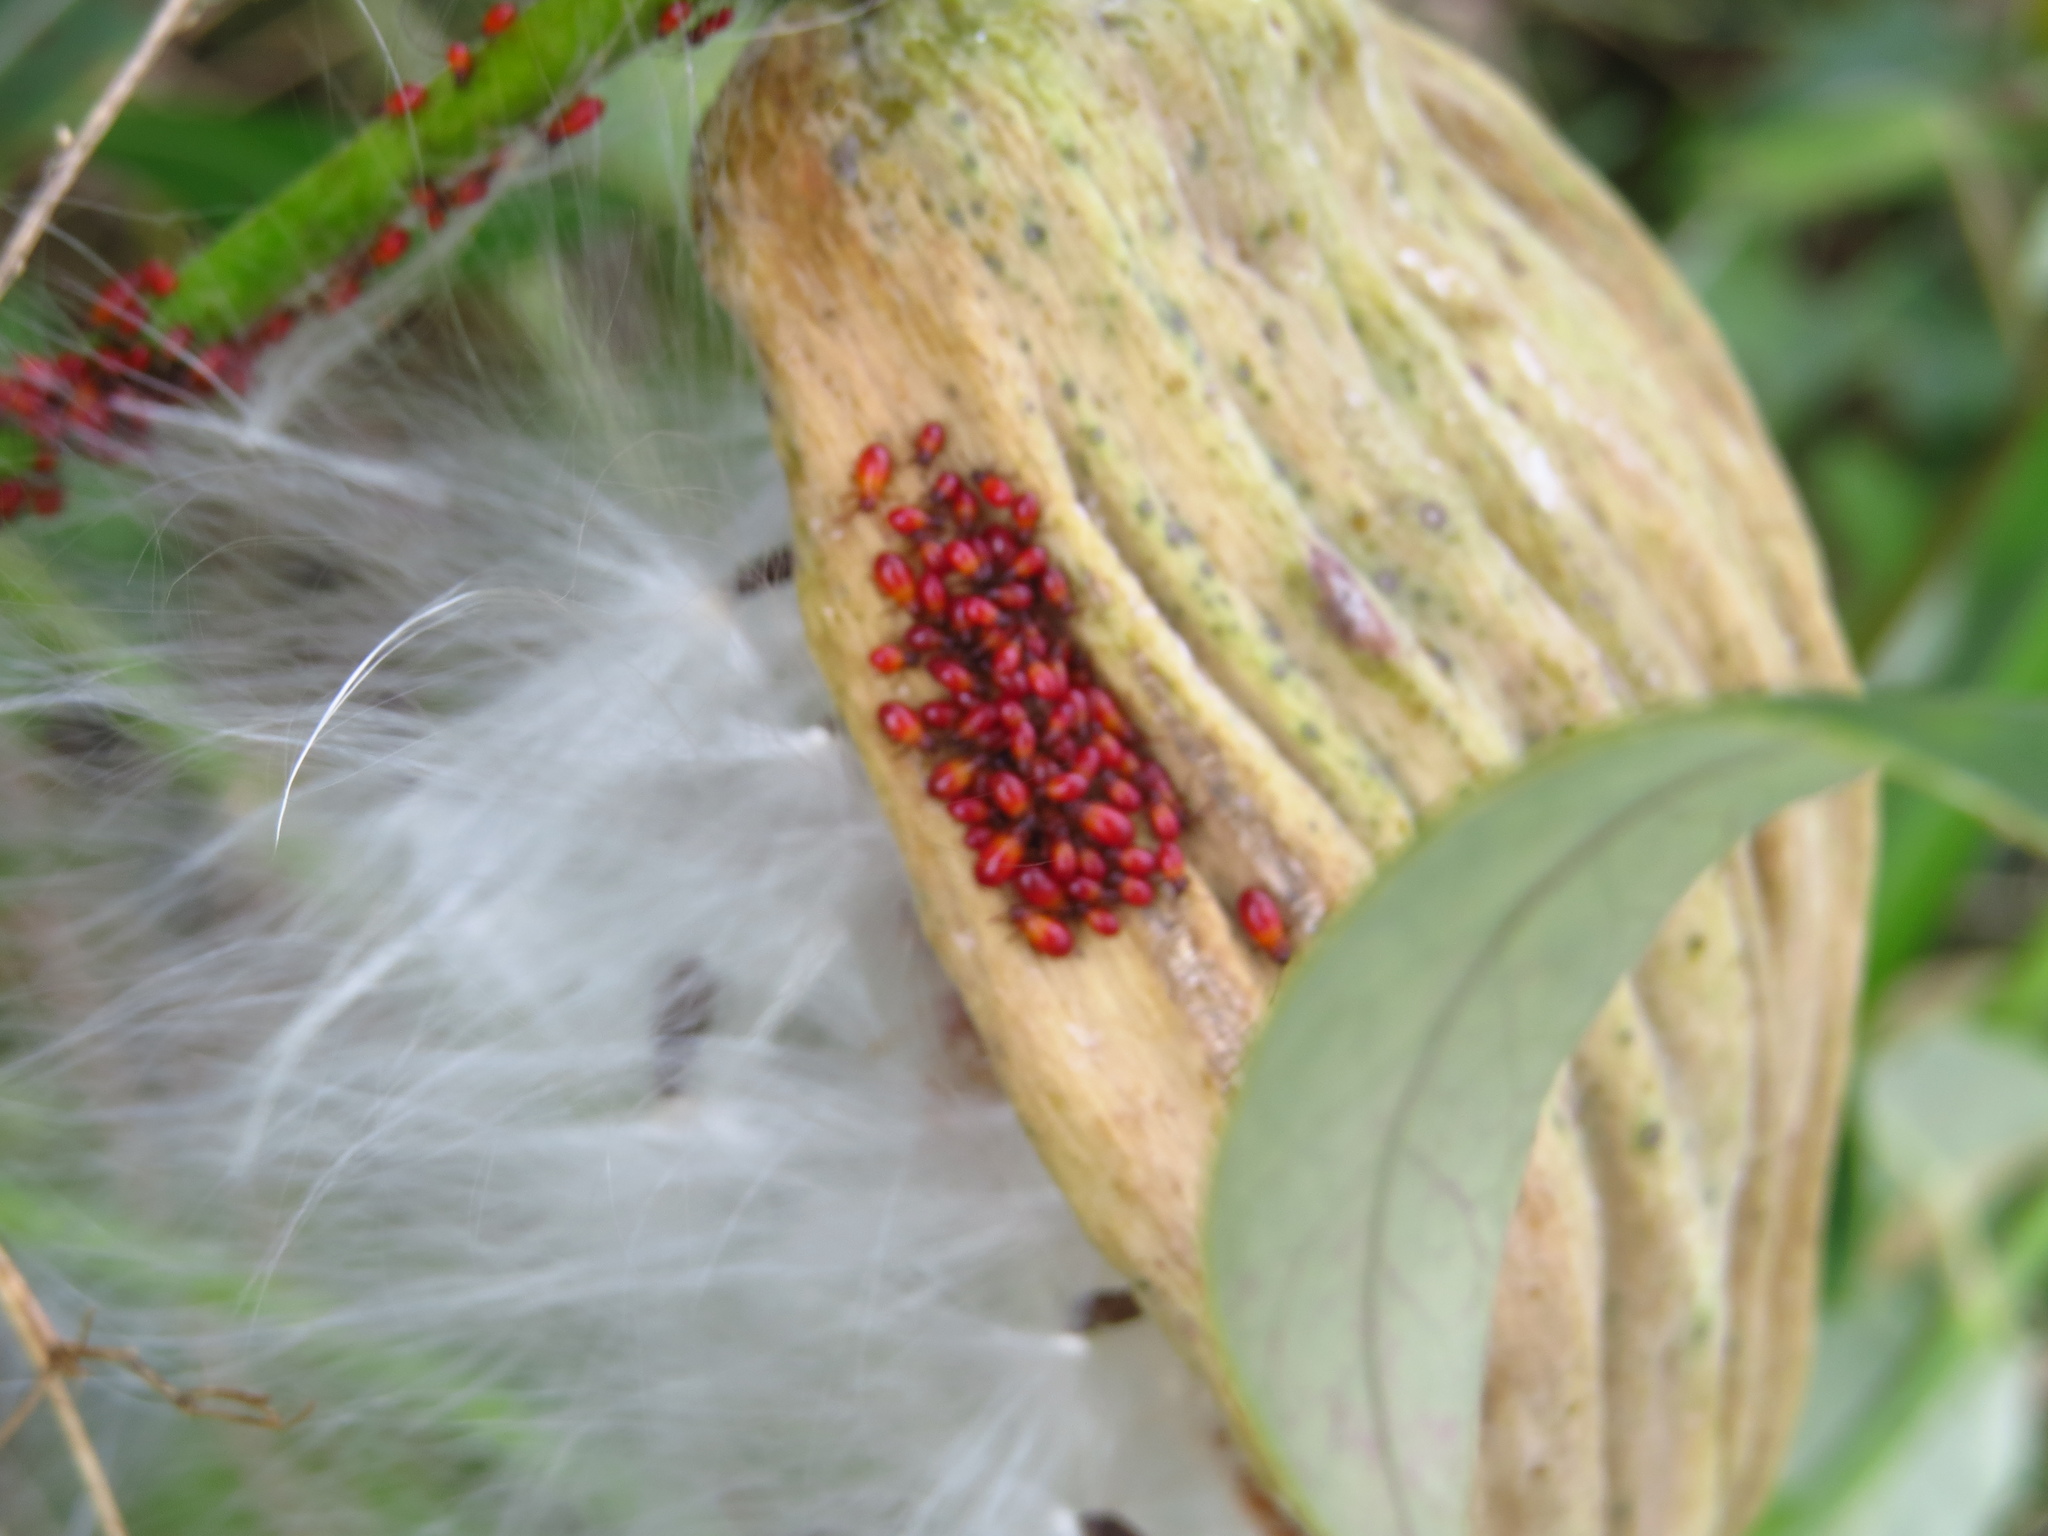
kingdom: Plantae
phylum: Tracheophyta
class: Magnoliopsida
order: Gentianales
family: Apocynaceae
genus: Araujia
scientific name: Araujia sericifera
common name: White bladderflower
